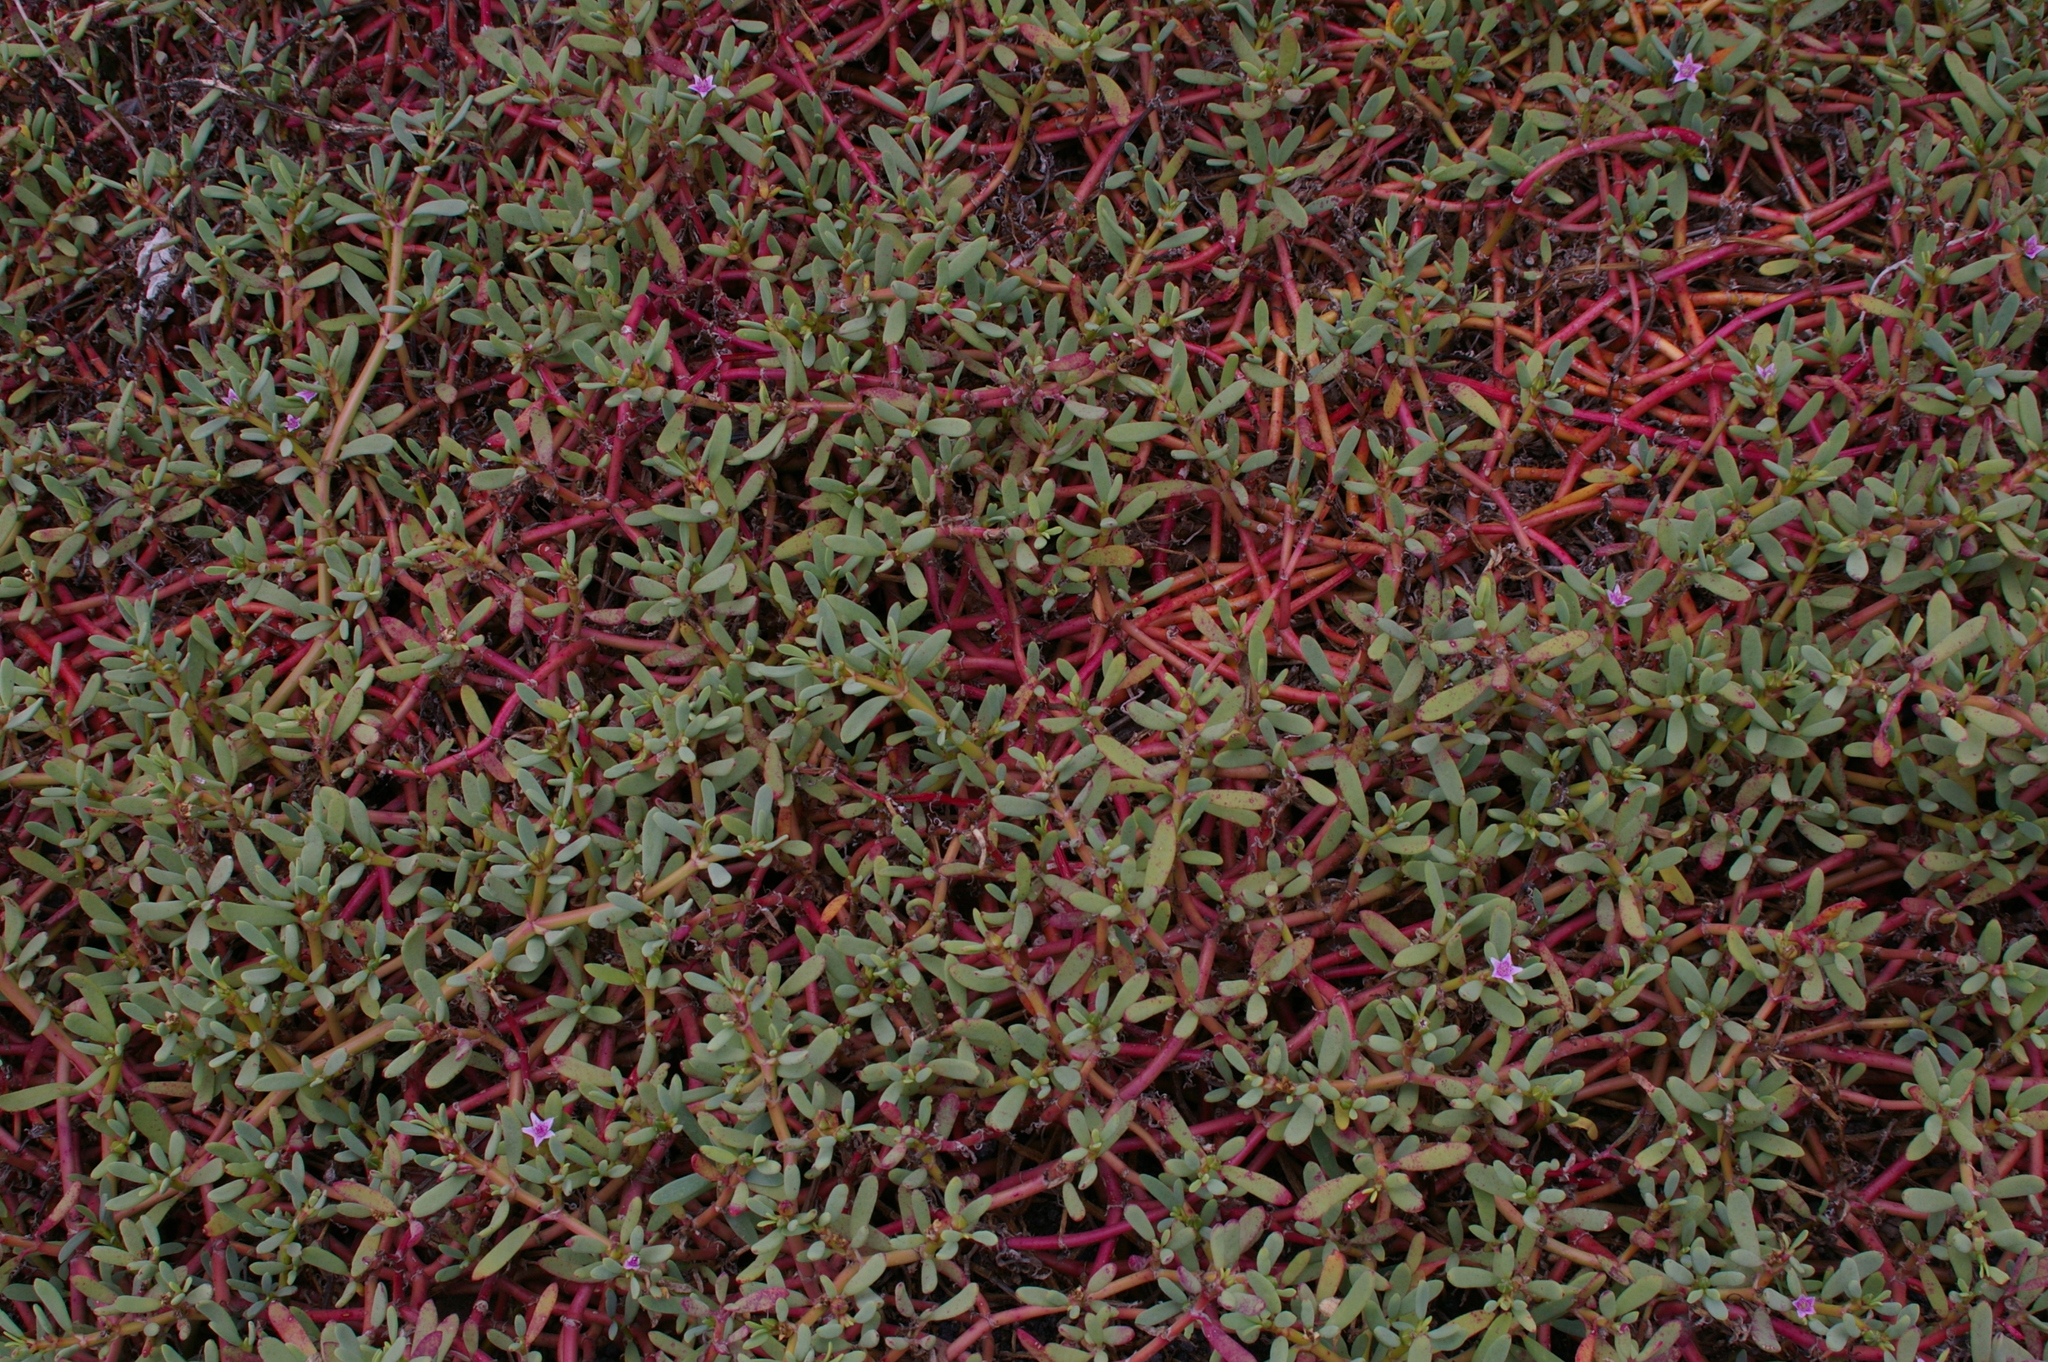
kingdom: Plantae
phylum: Tracheophyta
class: Magnoliopsida
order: Caryophyllales
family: Aizoaceae
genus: Sesuvium
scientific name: Sesuvium portulacastrum
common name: Sea-purslane
